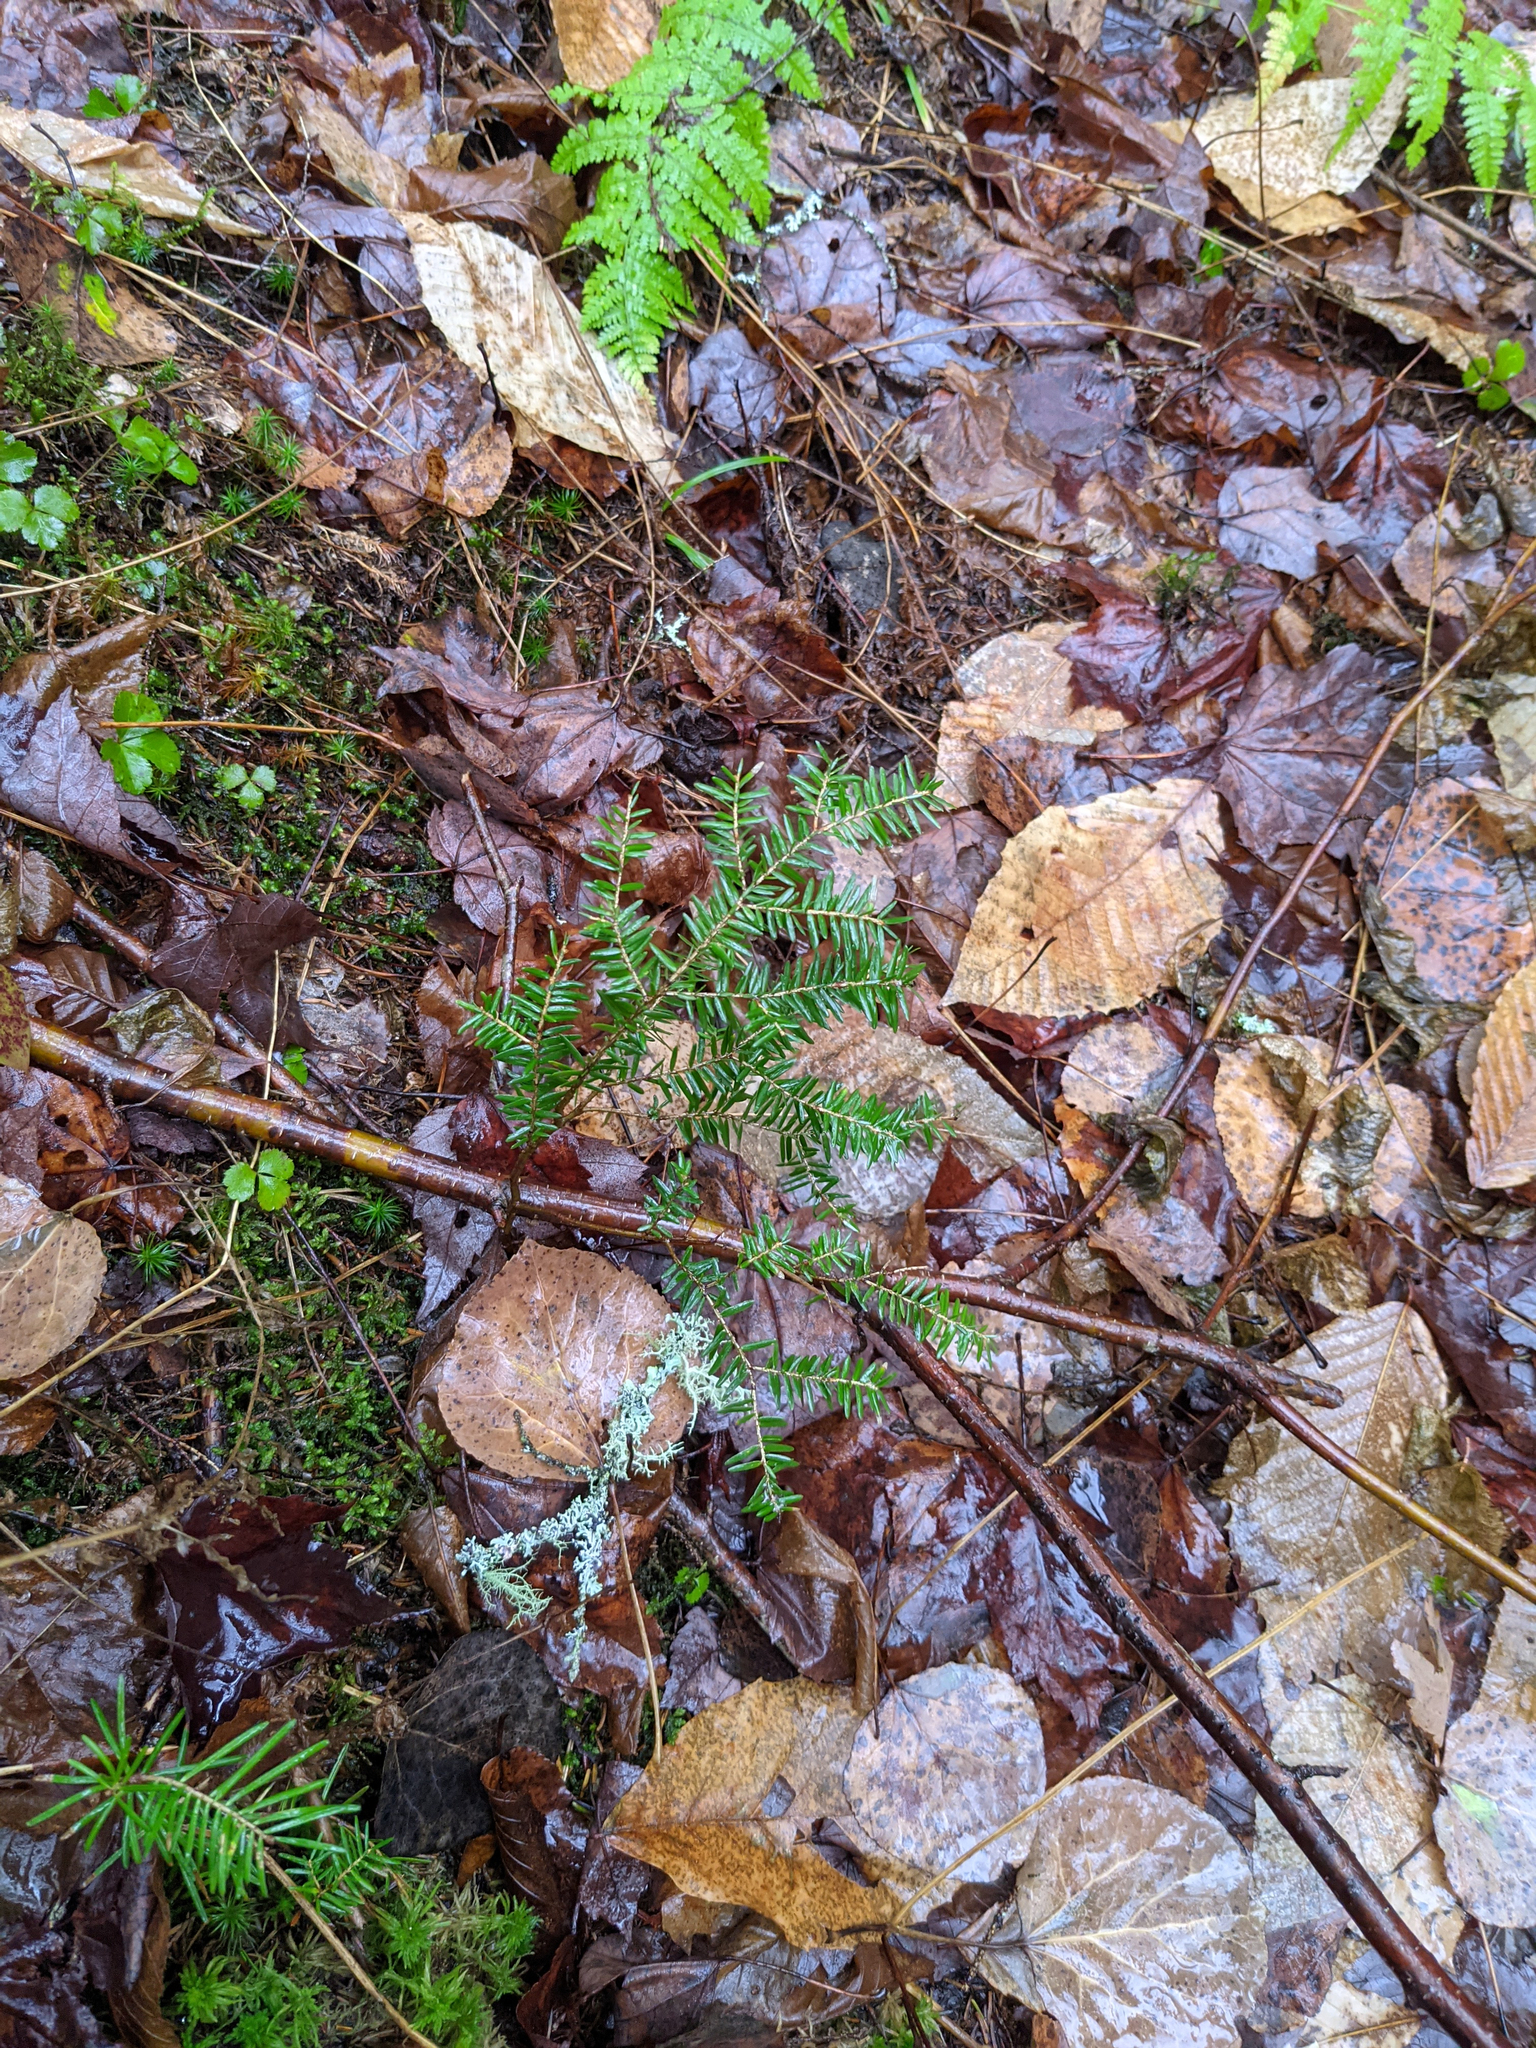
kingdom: Plantae
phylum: Tracheophyta
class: Pinopsida
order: Pinales
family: Pinaceae
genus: Tsuga
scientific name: Tsuga canadensis
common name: Eastern hemlock
